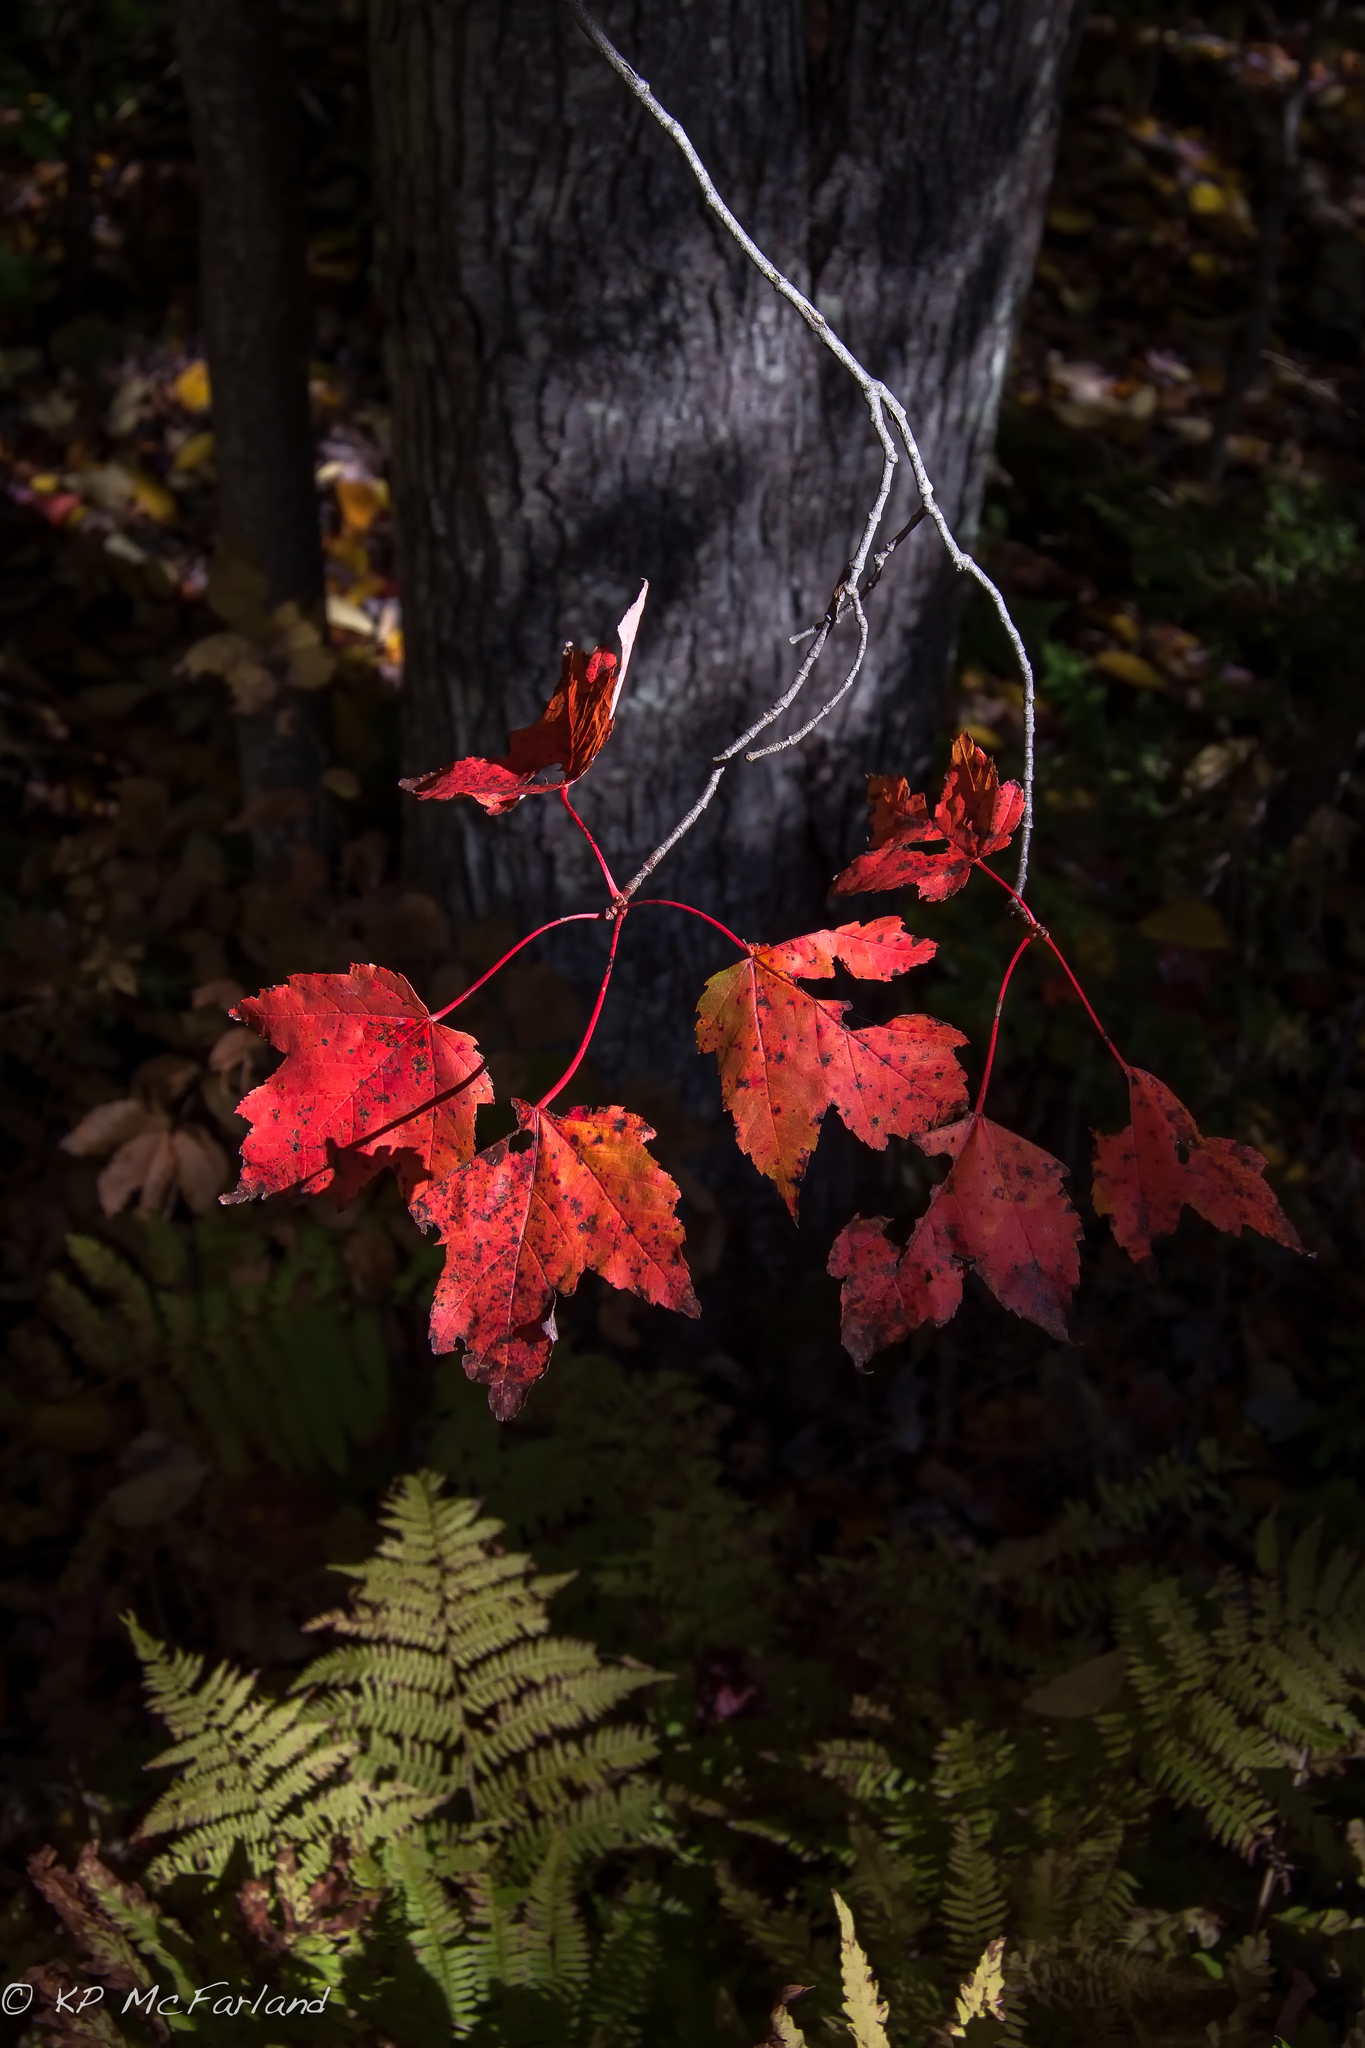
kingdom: Plantae
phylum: Tracheophyta
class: Magnoliopsida
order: Sapindales
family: Sapindaceae
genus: Acer
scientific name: Acer rubrum
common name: Red maple
